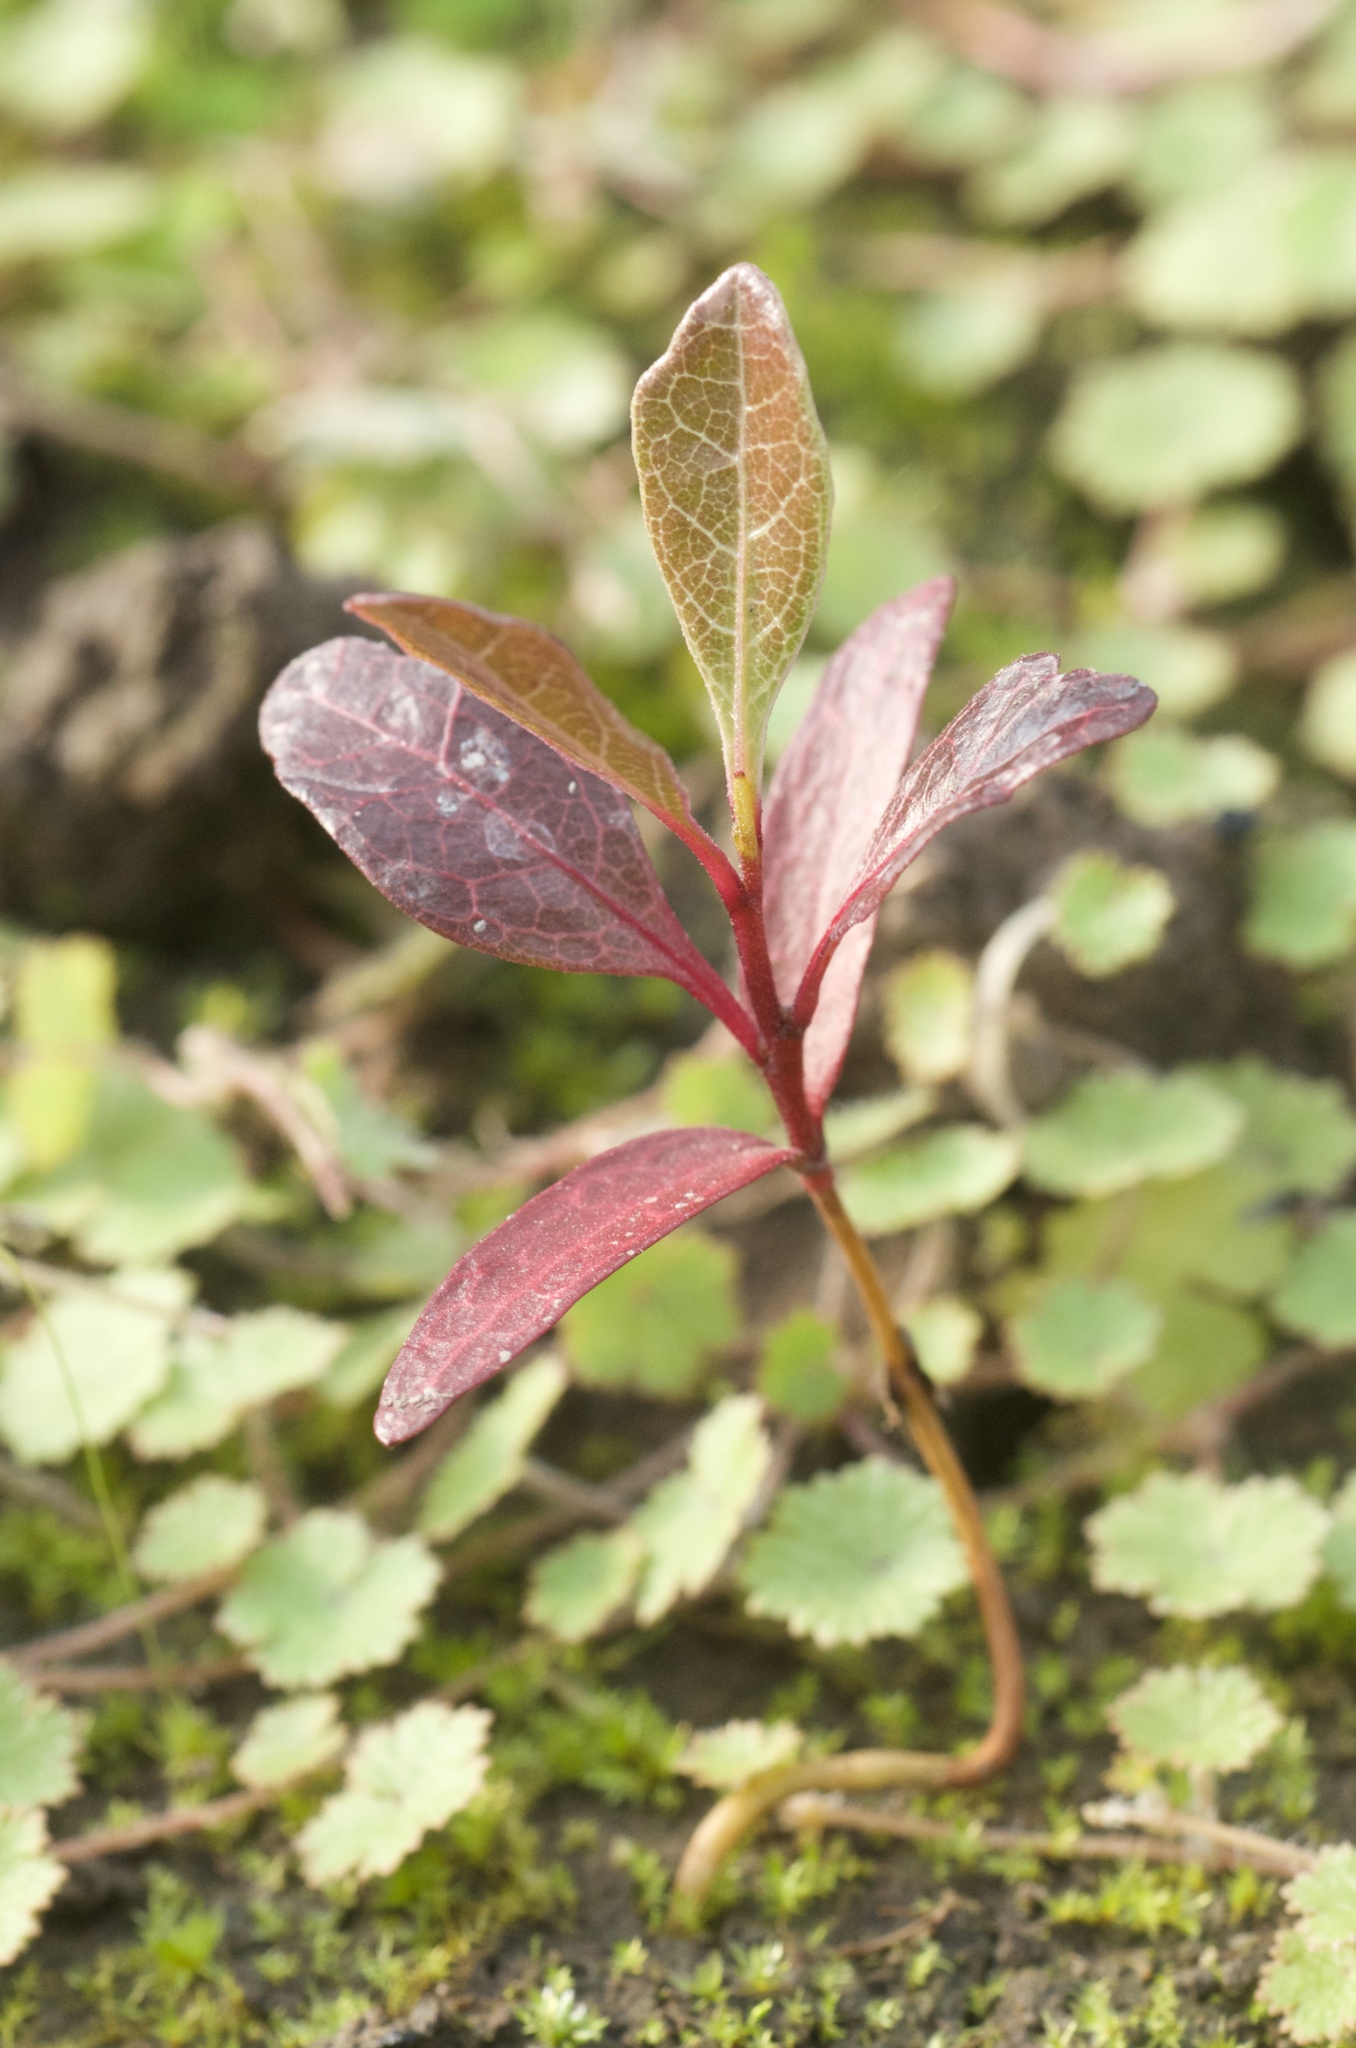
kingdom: Plantae
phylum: Tracheophyta
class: Magnoliopsida
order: Sapindales
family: Sapindaceae
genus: Dodonaea
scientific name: Dodonaea viscosa
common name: Hopbush
